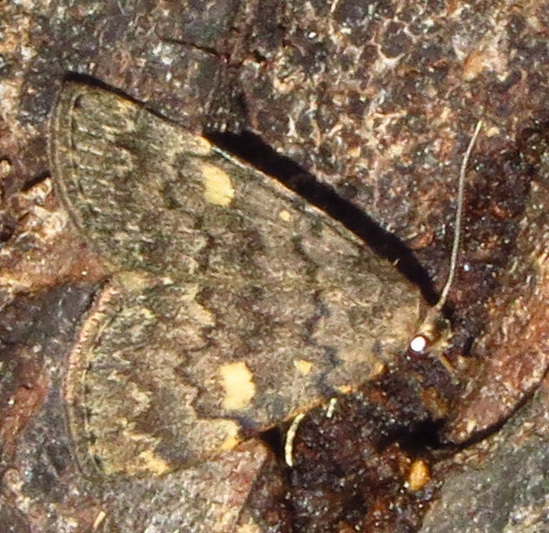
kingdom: Animalia
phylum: Arthropoda
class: Insecta
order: Lepidoptera
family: Erebidae
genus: Idia
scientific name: Idia aemula
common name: Common idia moth
